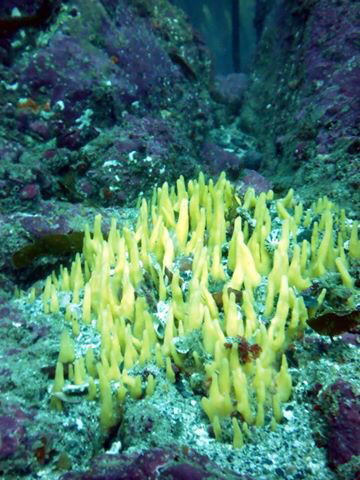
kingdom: Animalia
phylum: Porifera
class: Demospongiae
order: Suberitida
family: Halichondriidae
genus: Ciocalypta
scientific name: Ciocalypta penicillus
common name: Brush sponge
